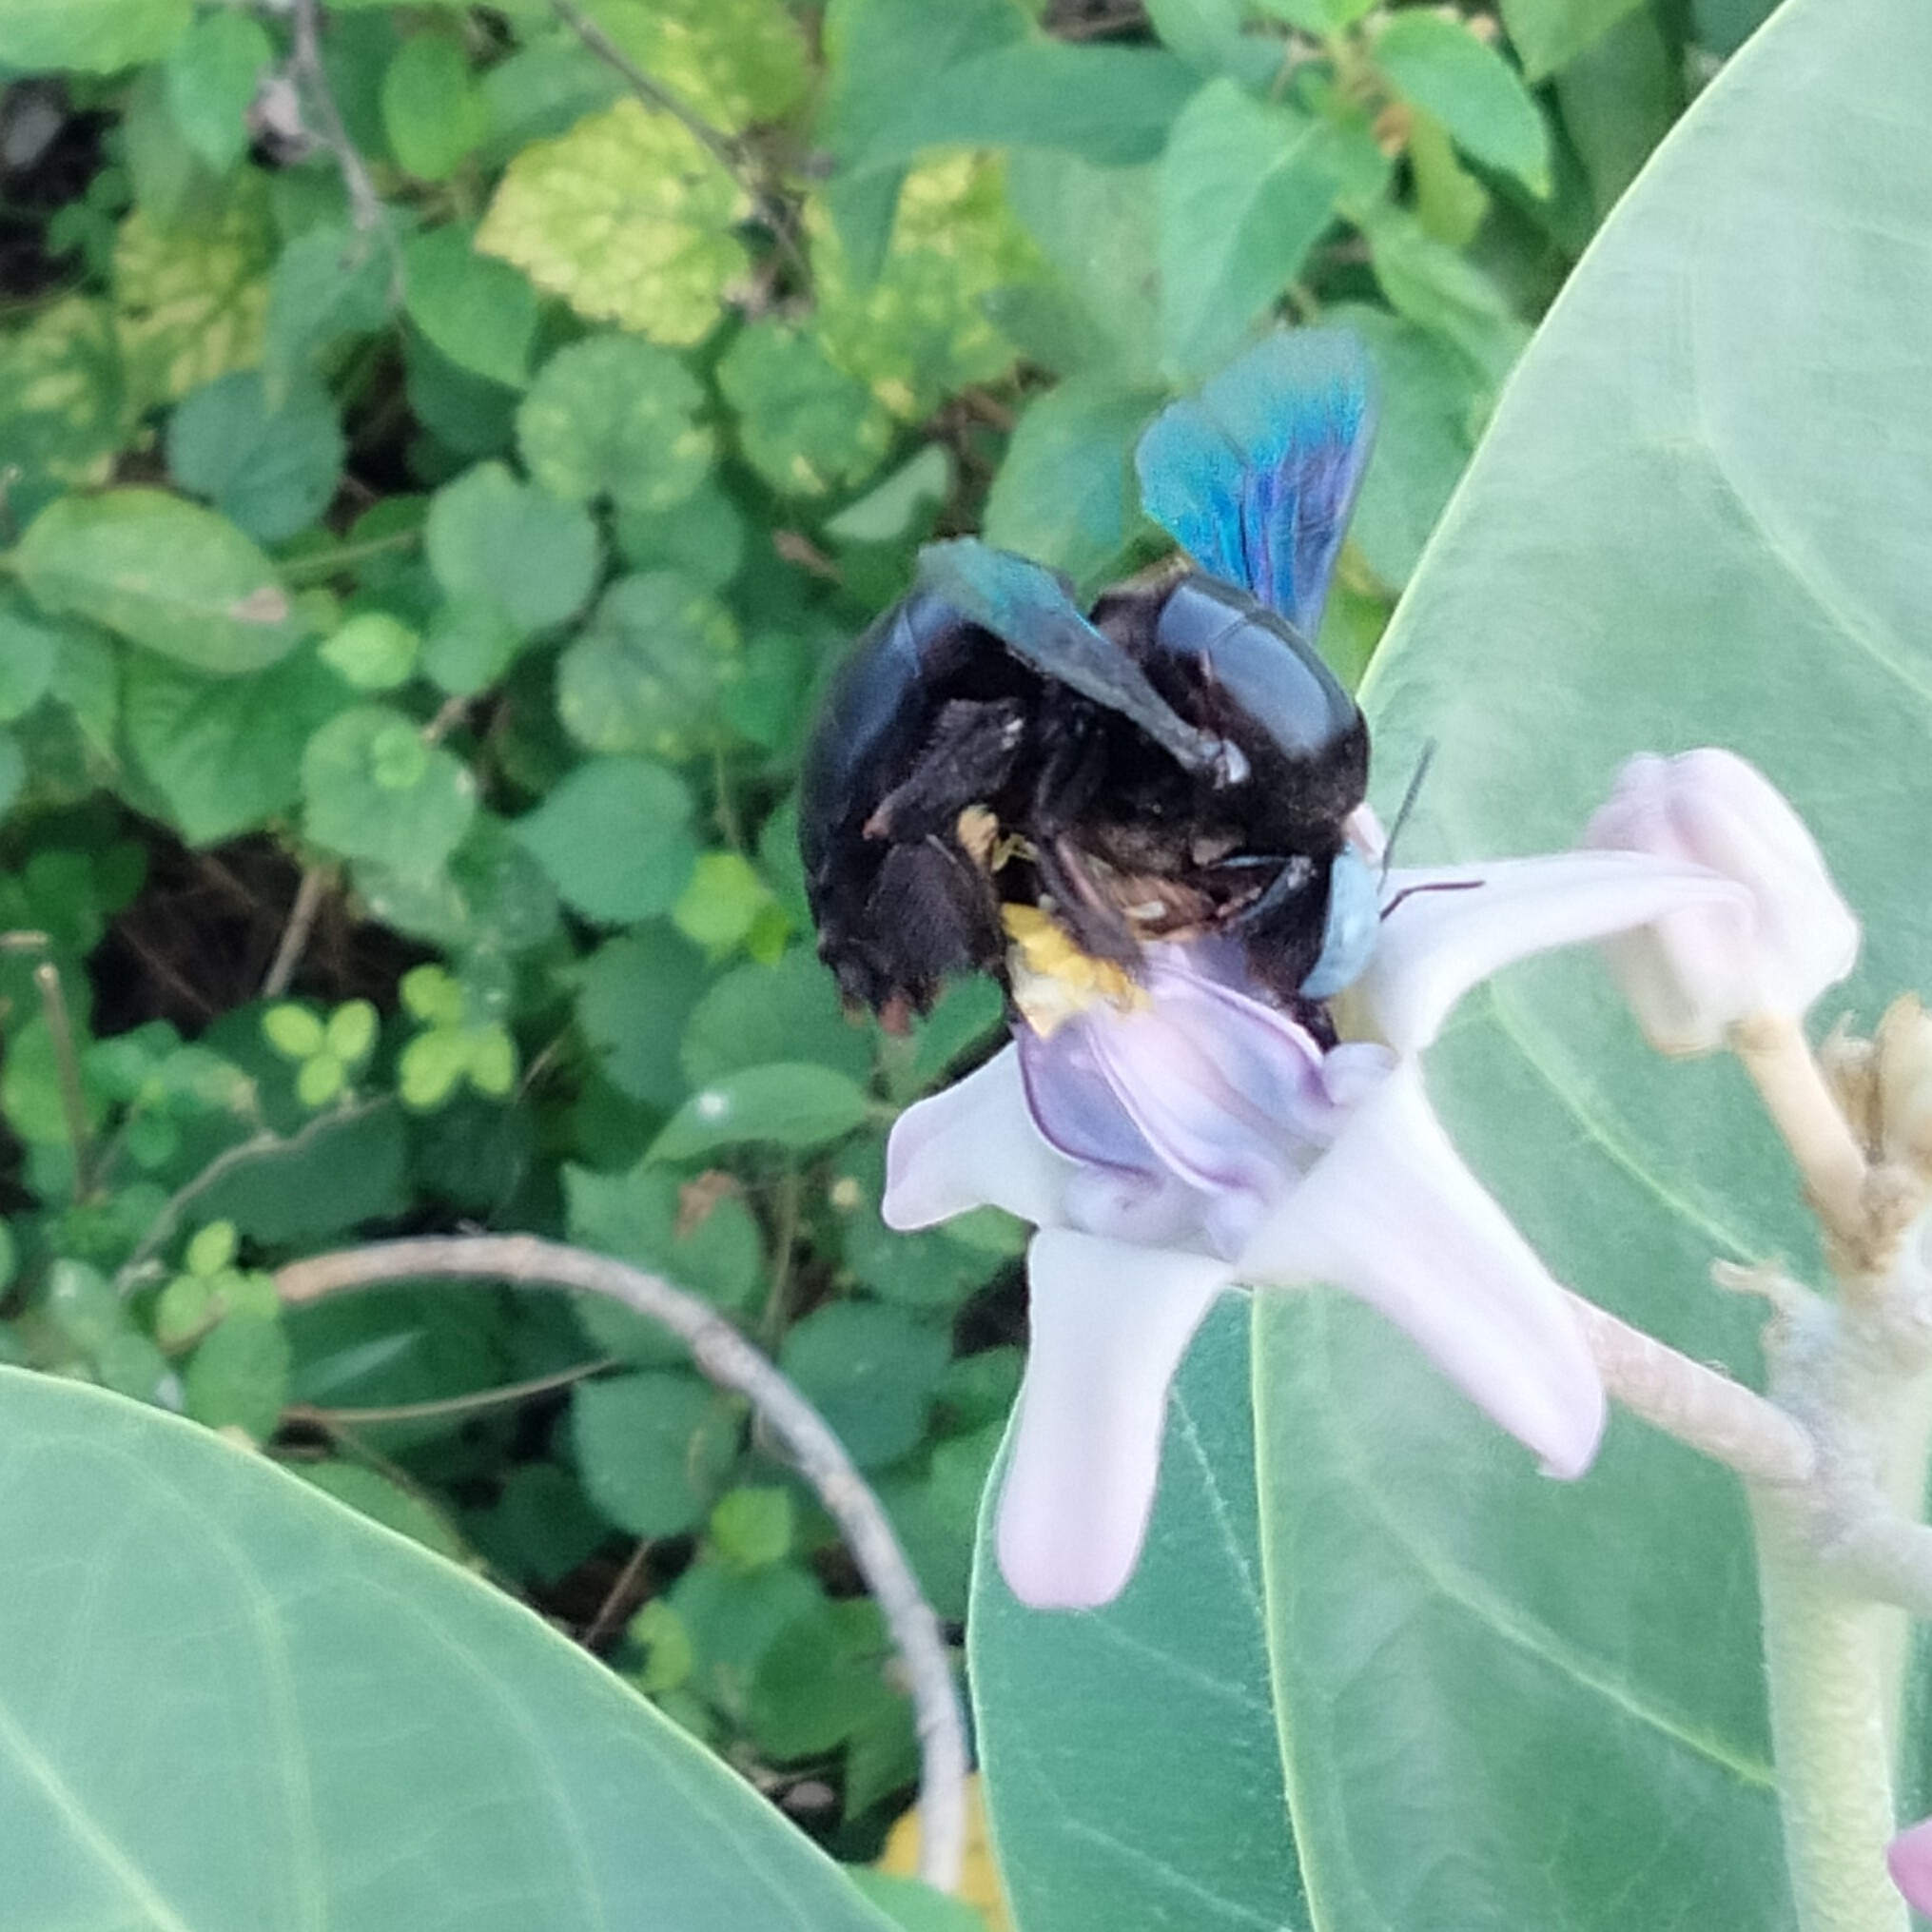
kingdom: Animalia
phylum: Arthropoda
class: Insecta
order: Hymenoptera
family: Apidae
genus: Xylocopa
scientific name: Xylocopa tenuiscapa
